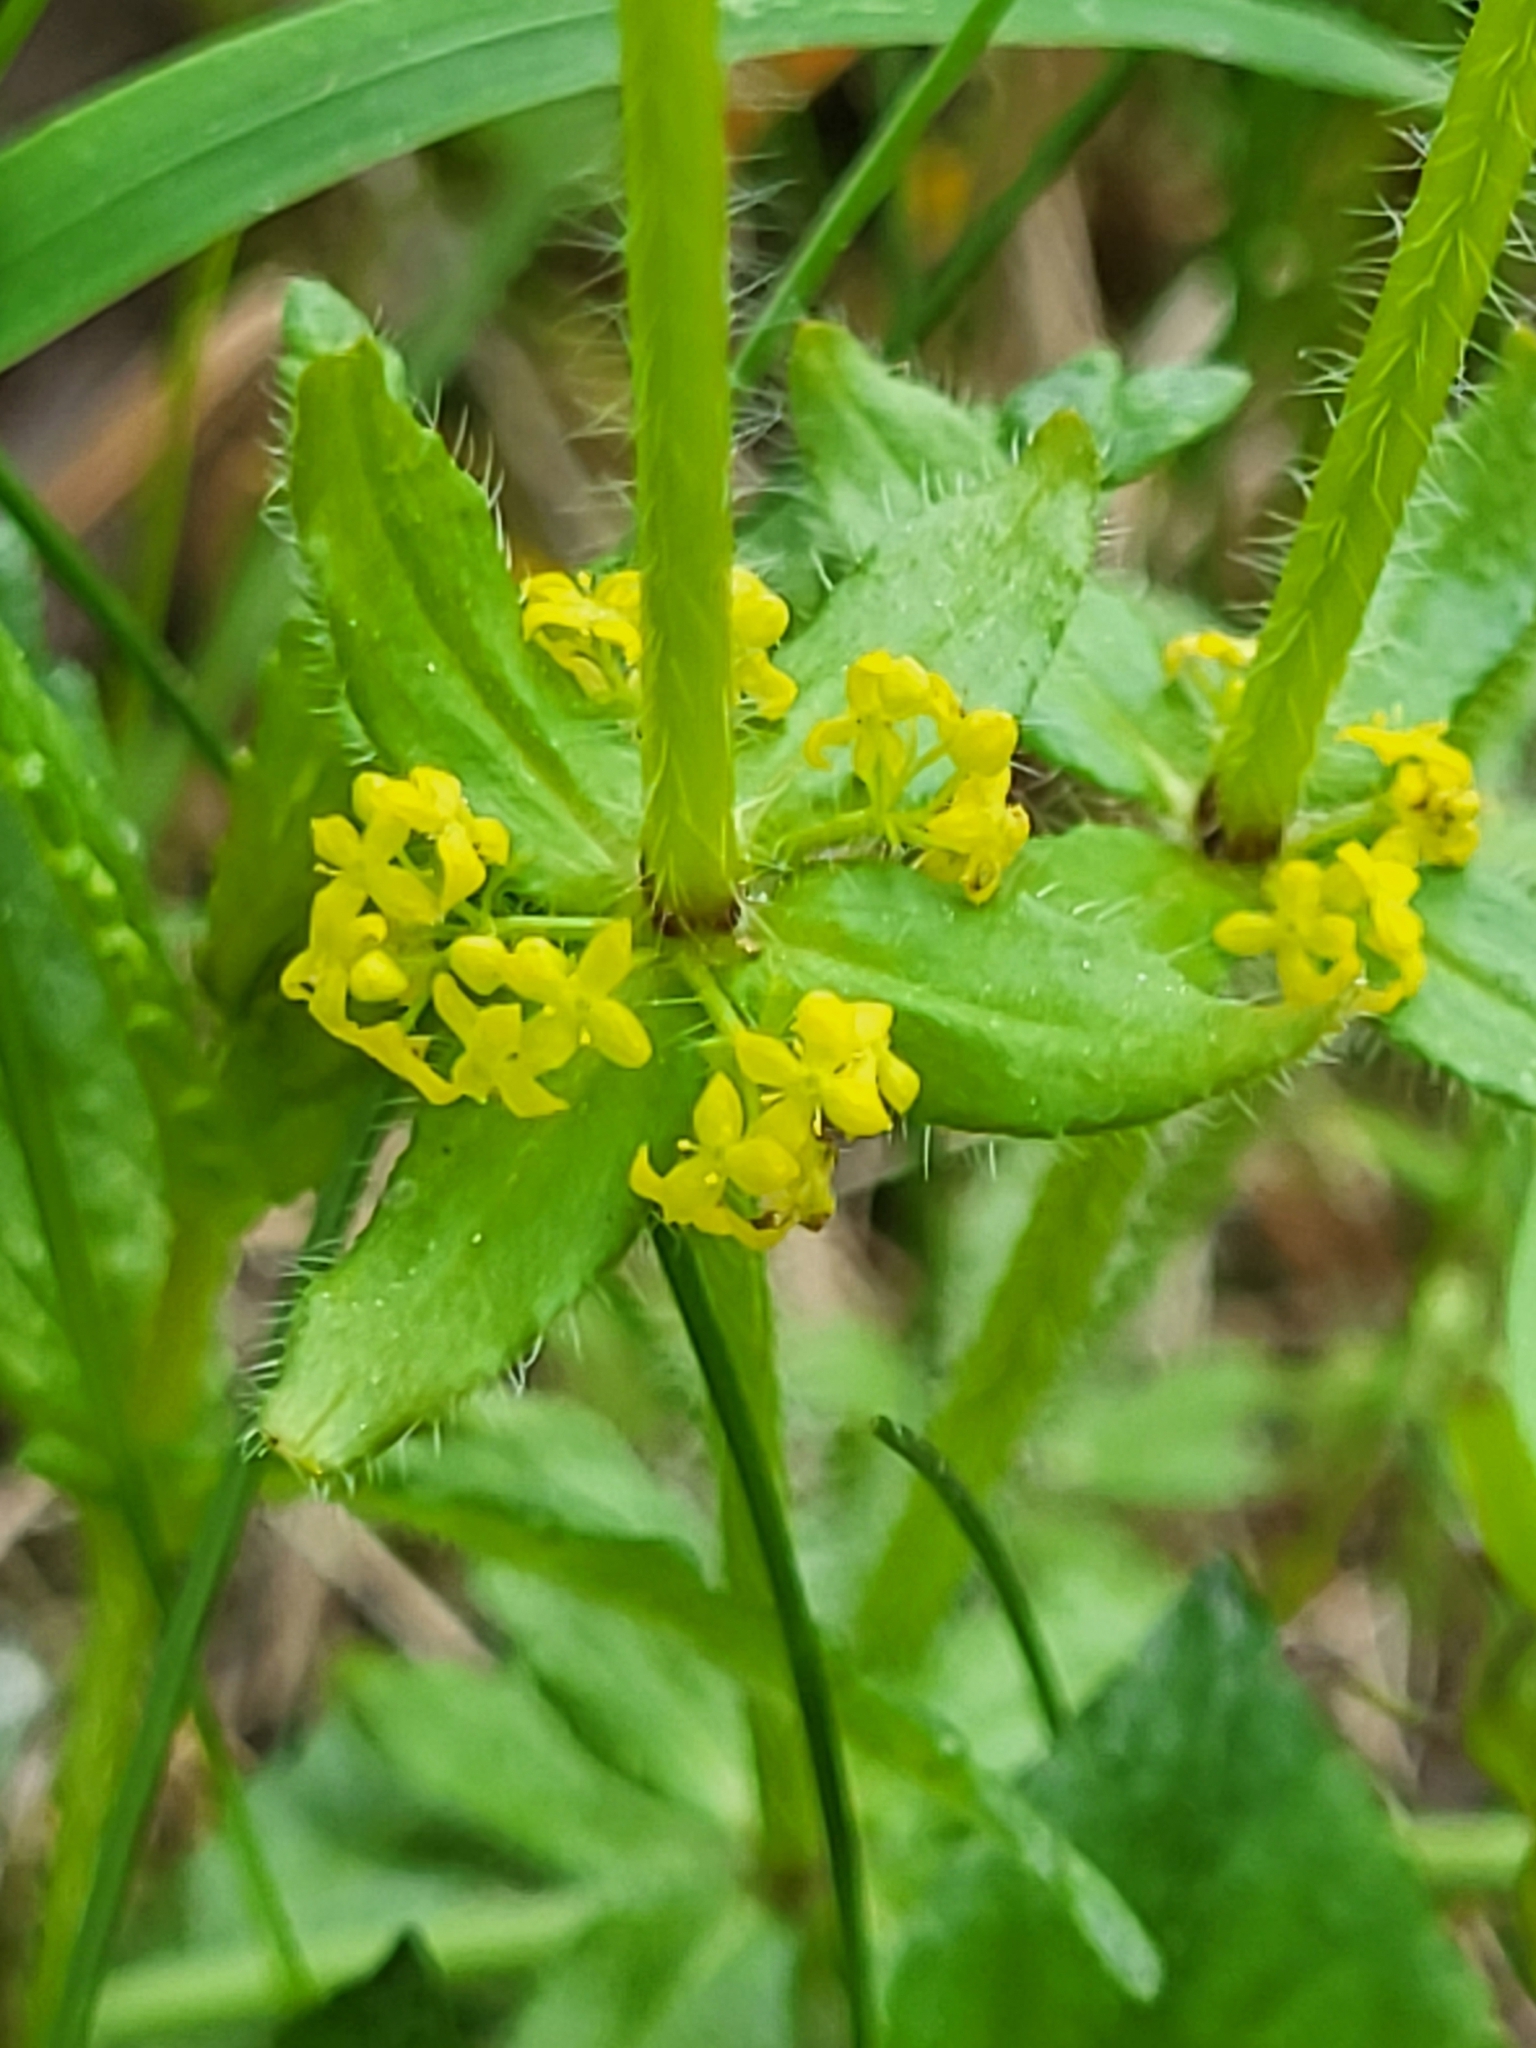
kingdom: Plantae
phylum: Tracheophyta
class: Magnoliopsida
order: Gentianales
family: Rubiaceae
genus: Cruciata
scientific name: Cruciata laevipes
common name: Crosswort
